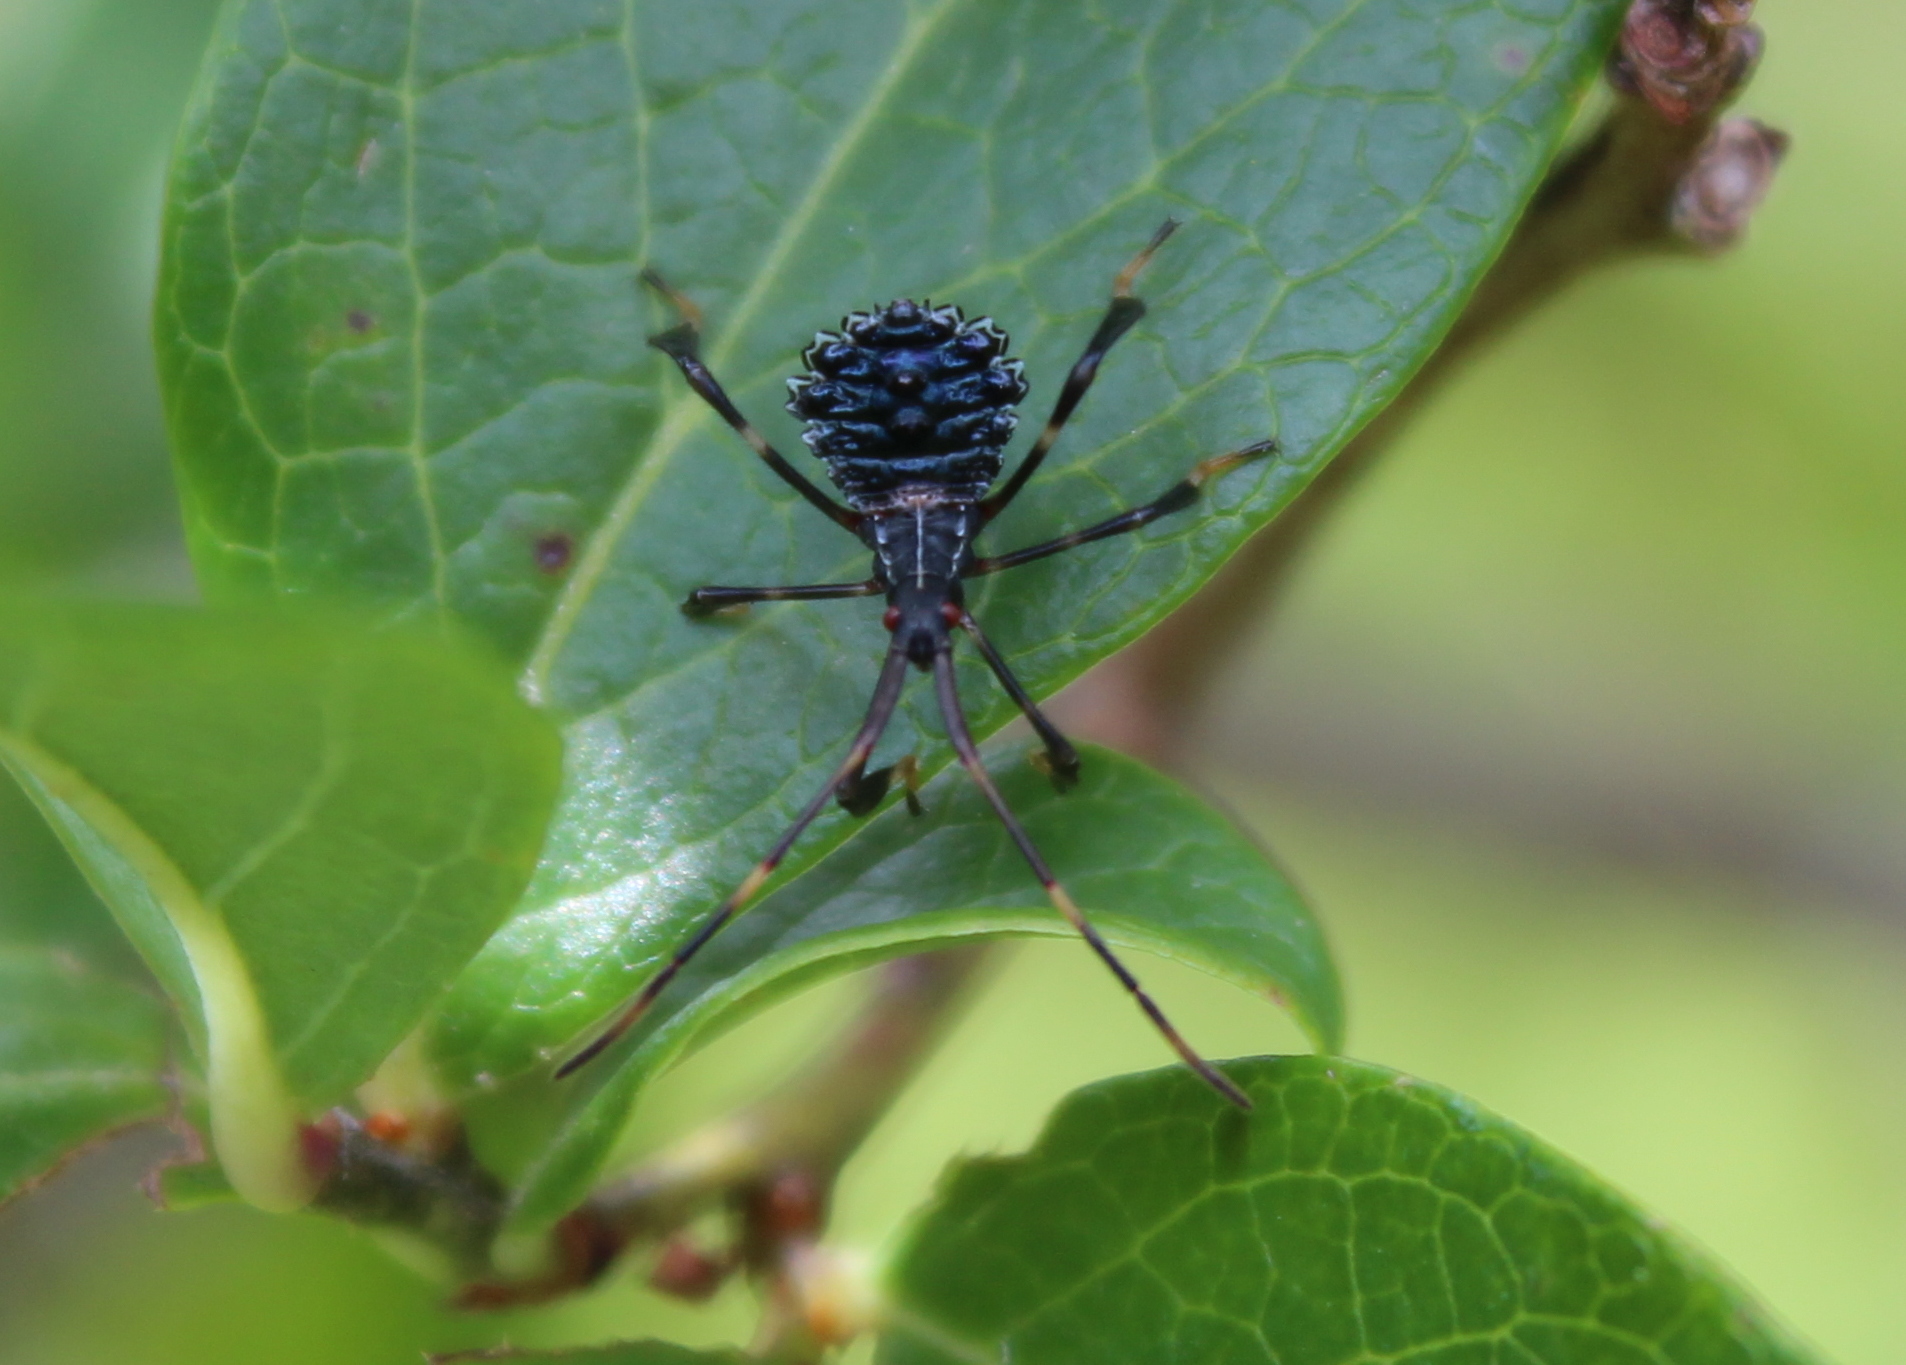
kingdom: Animalia
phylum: Arthropoda
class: Insecta
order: Hemiptera
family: Coreidae
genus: Acanthocephala
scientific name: Acanthocephala terminalis
